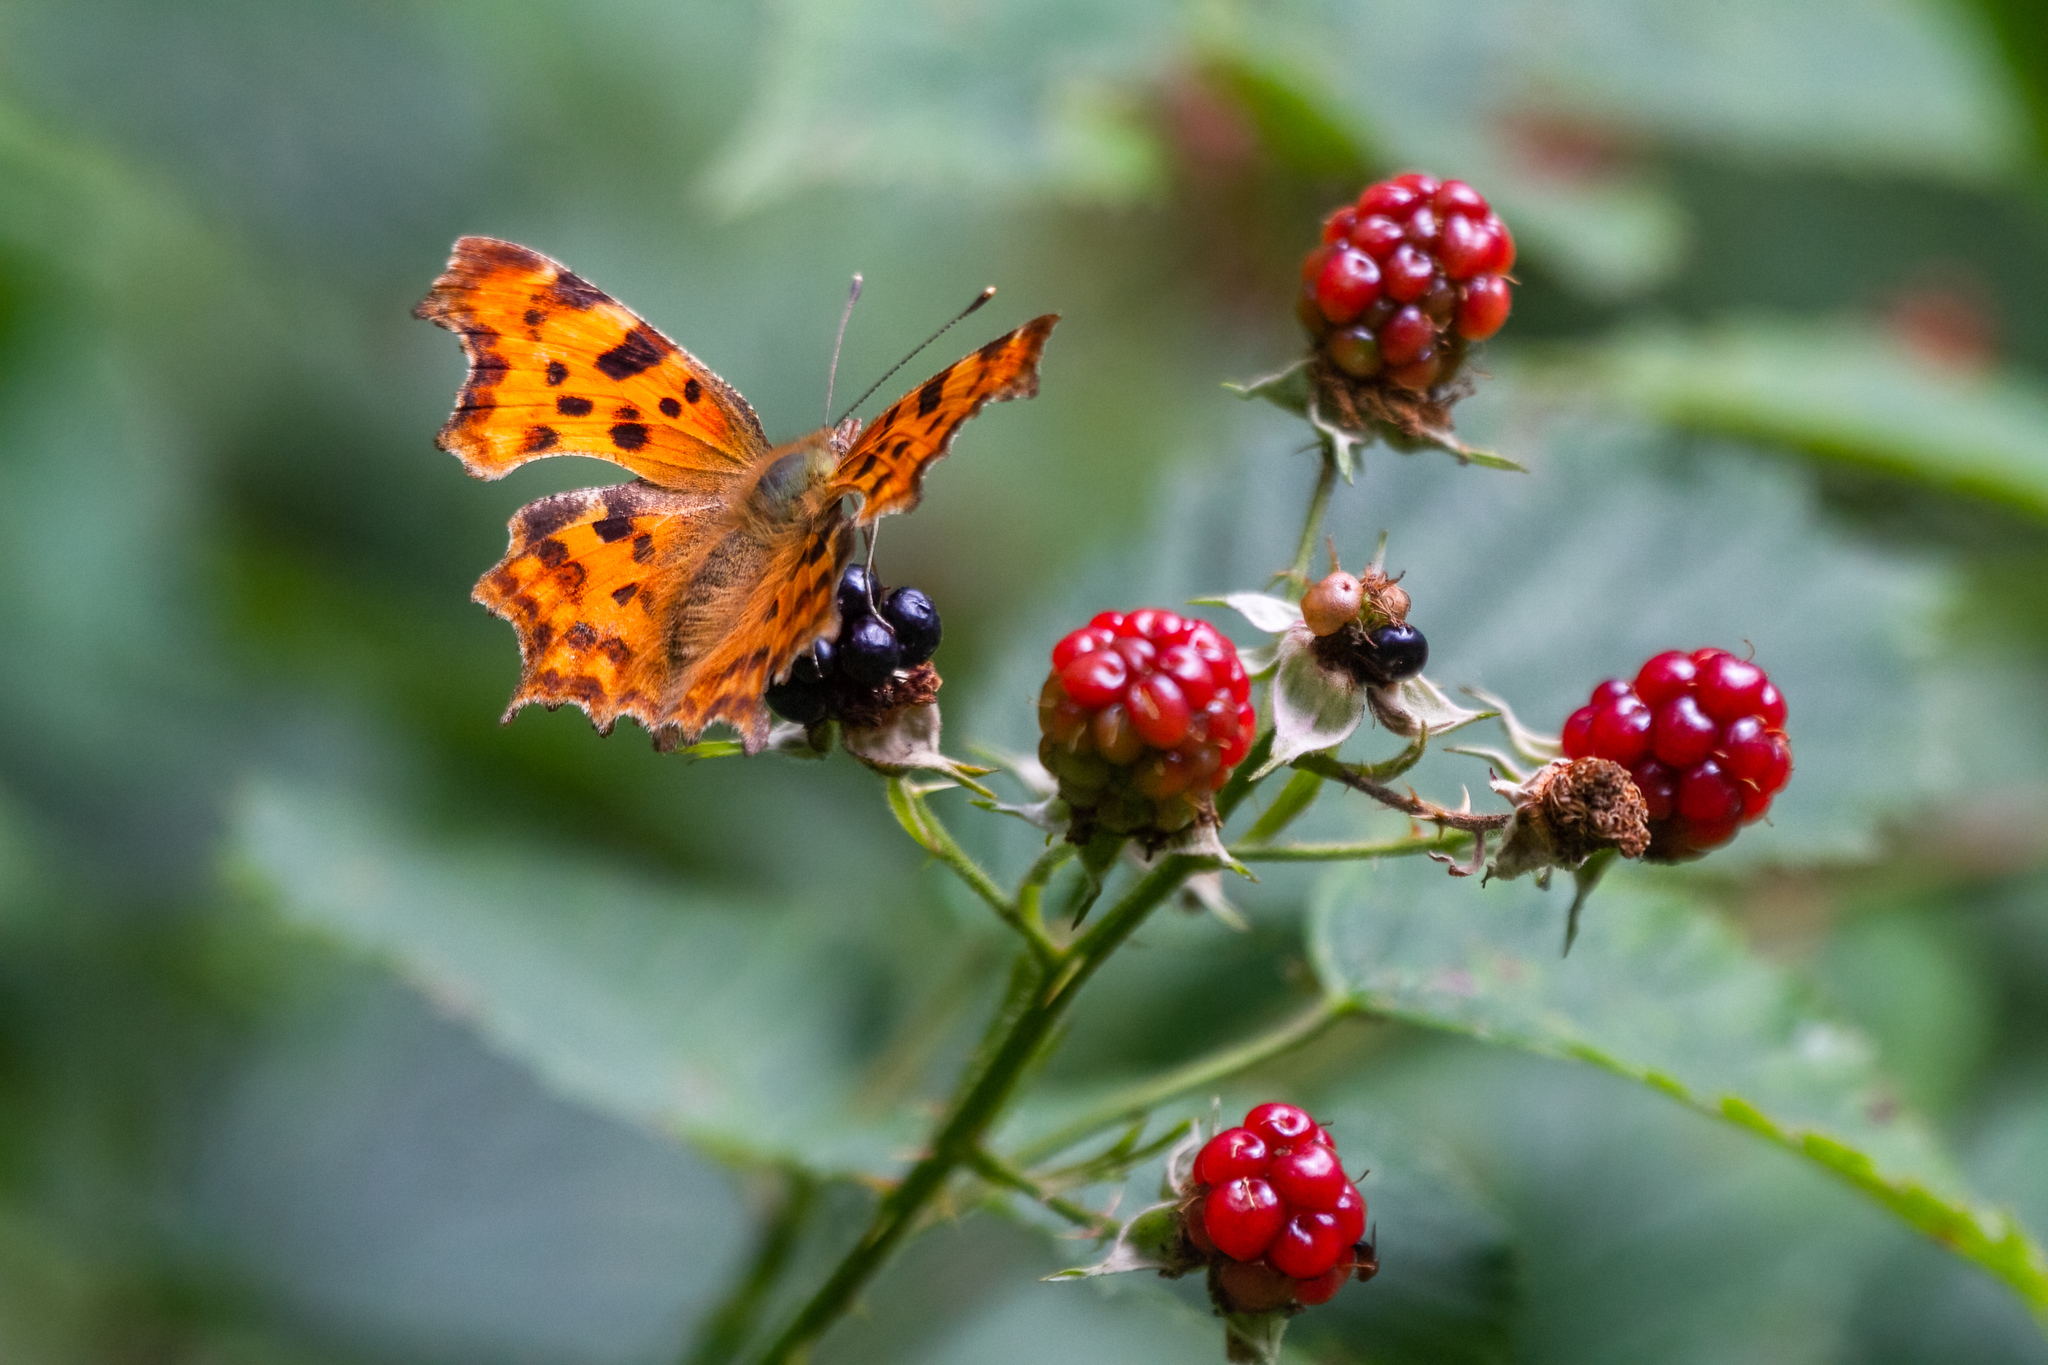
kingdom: Animalia
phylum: Arthropoda
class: Insecta
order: Lepidoptera
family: Nymphalidae
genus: Polygonia
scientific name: Polygonia c-album
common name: Comma
